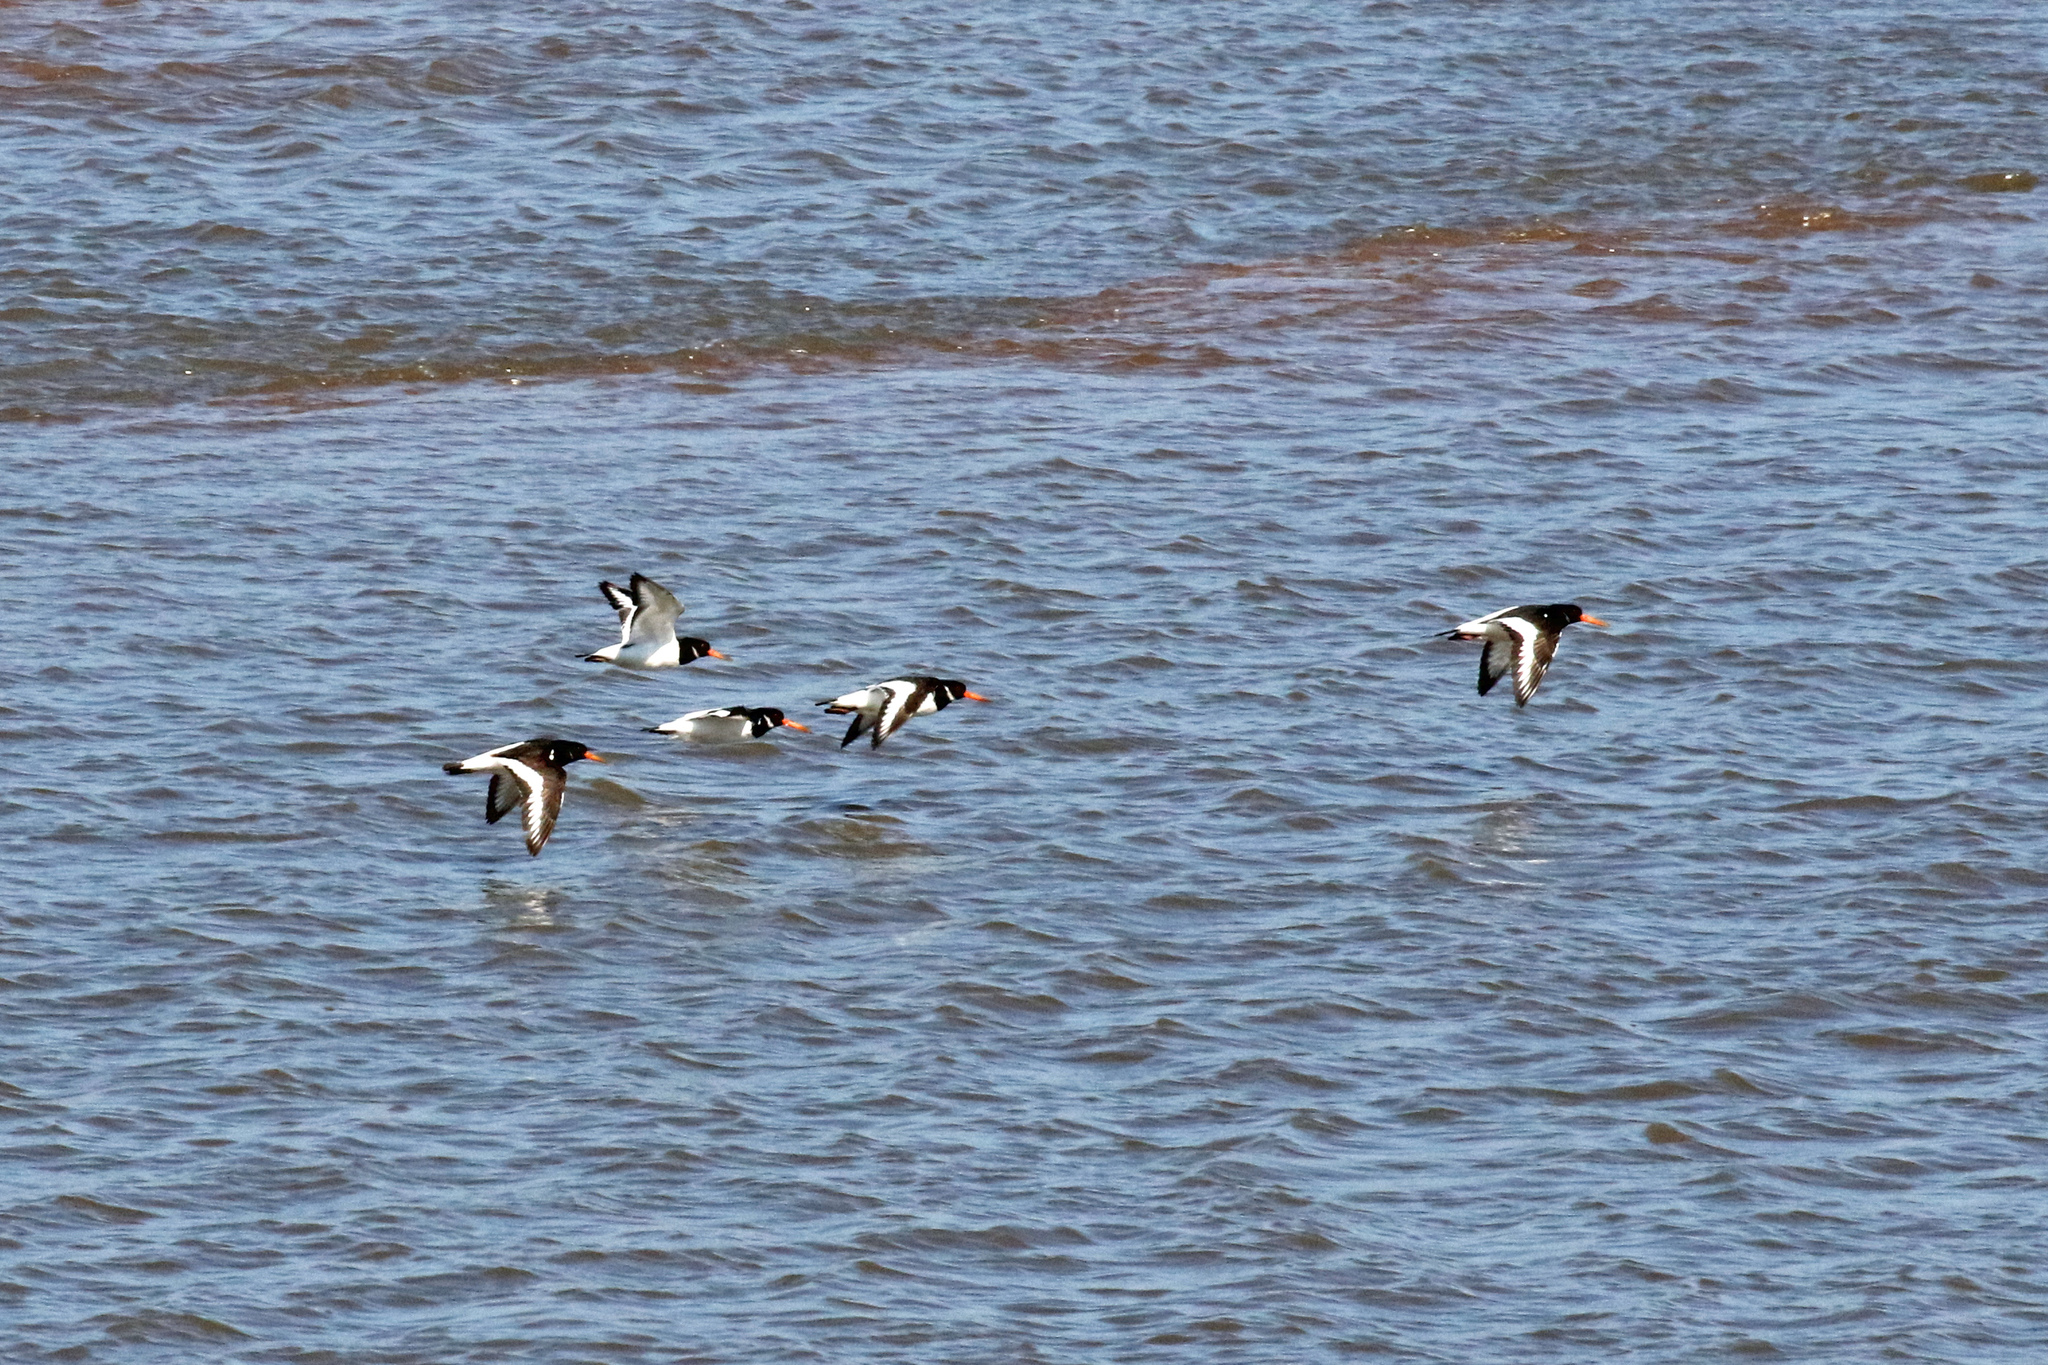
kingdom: Animalia
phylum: Chordata
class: Aves
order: Charadriiformes
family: Haematopodidae
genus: Haematopus
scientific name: Haematopus ostralegus
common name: Eurasian oystercatcher
